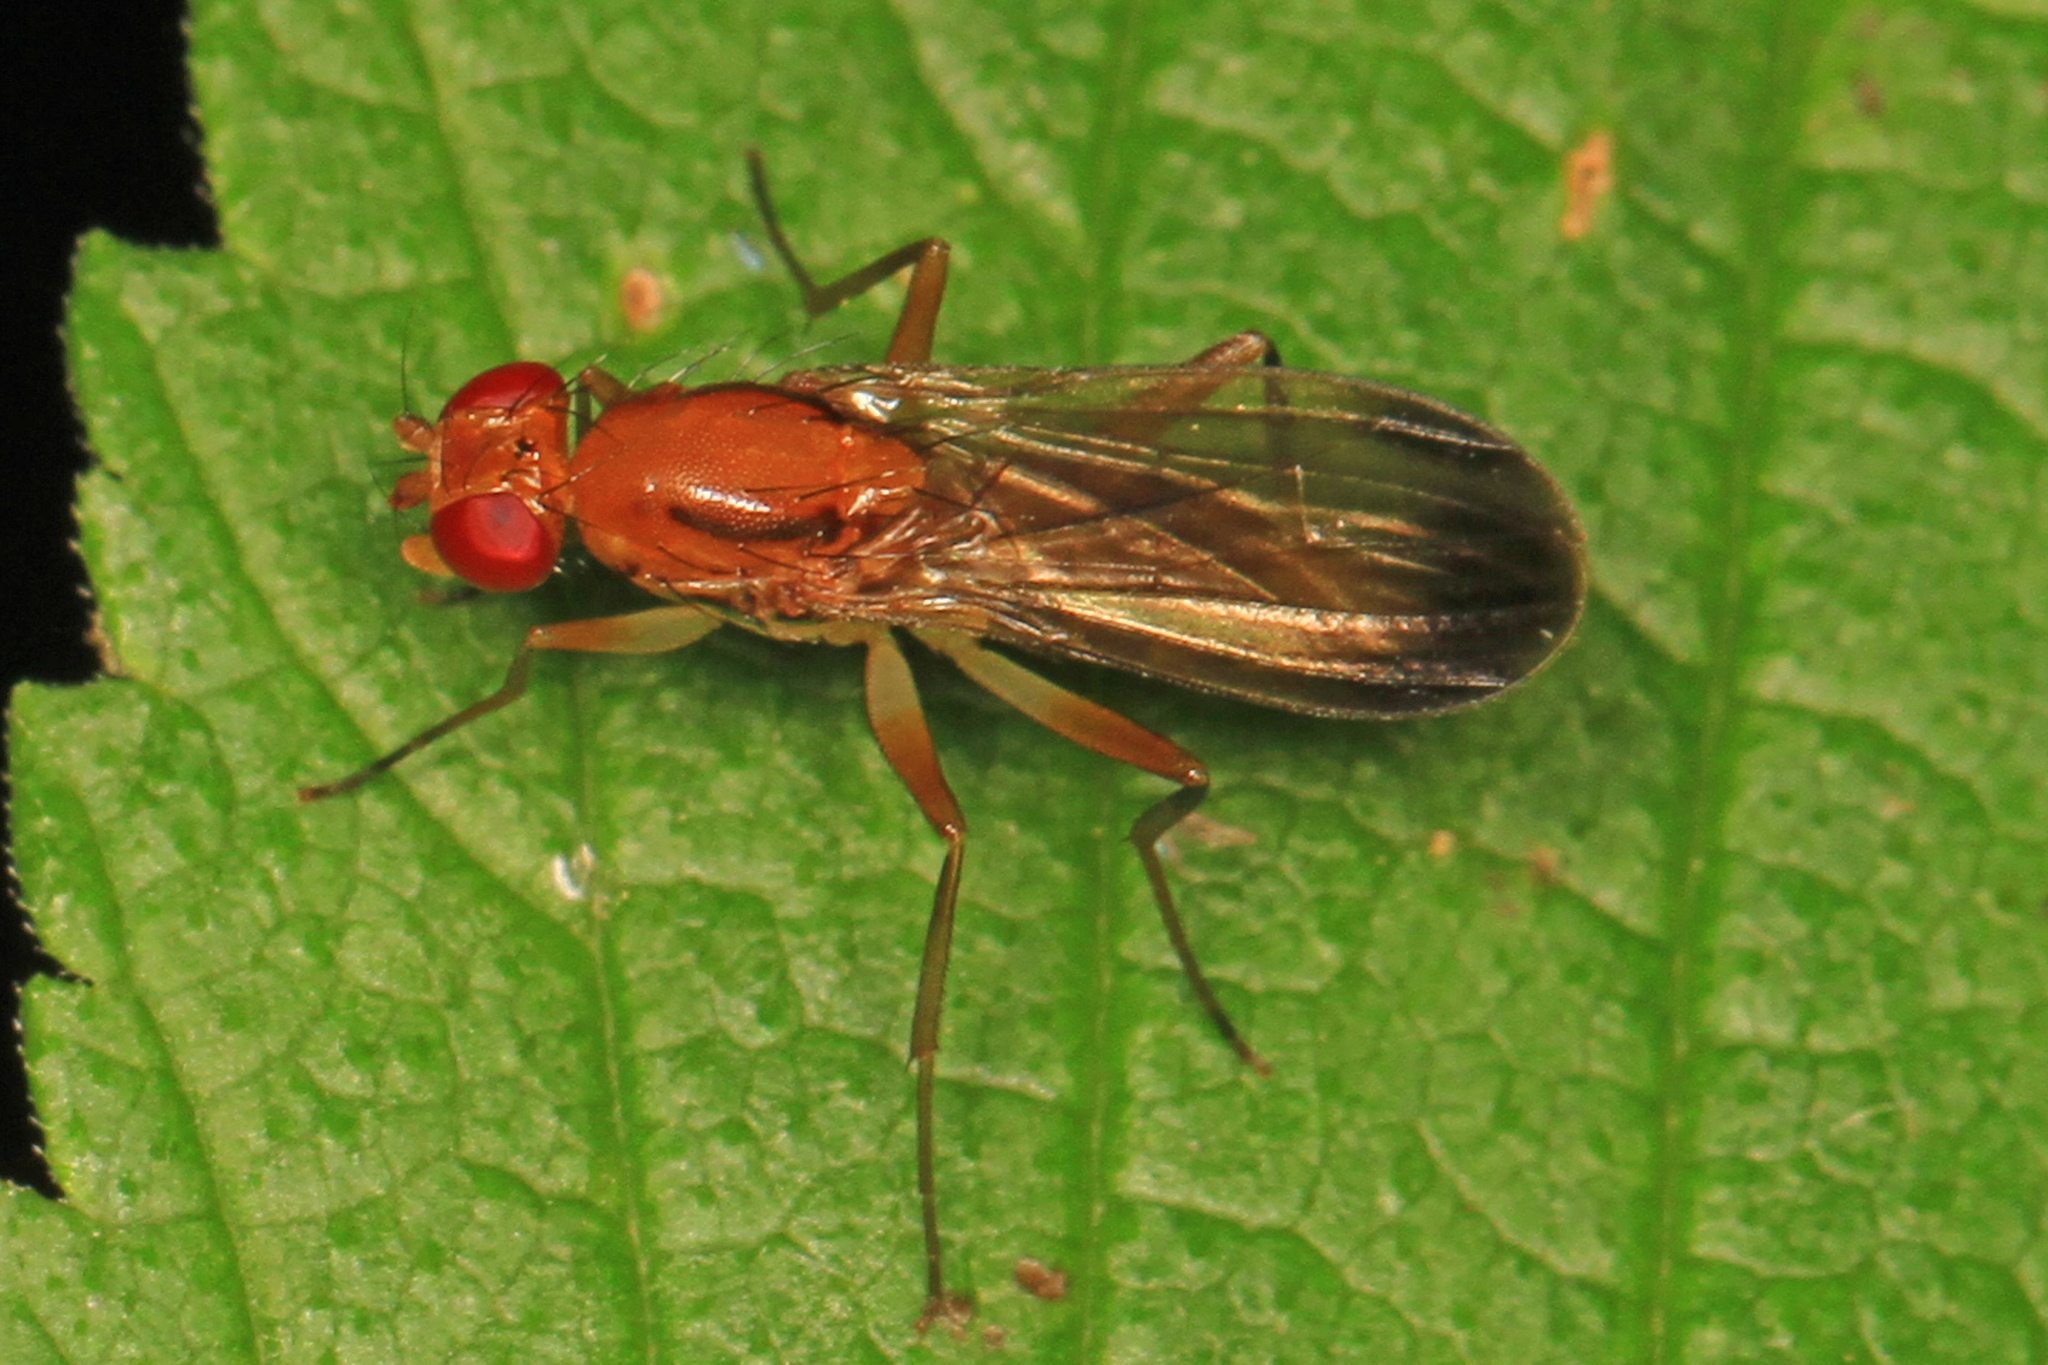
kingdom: Animalia
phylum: Arthropoda
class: Insecta
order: Diptera
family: Clusiidae
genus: Clusia
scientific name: Clusia lateralis
